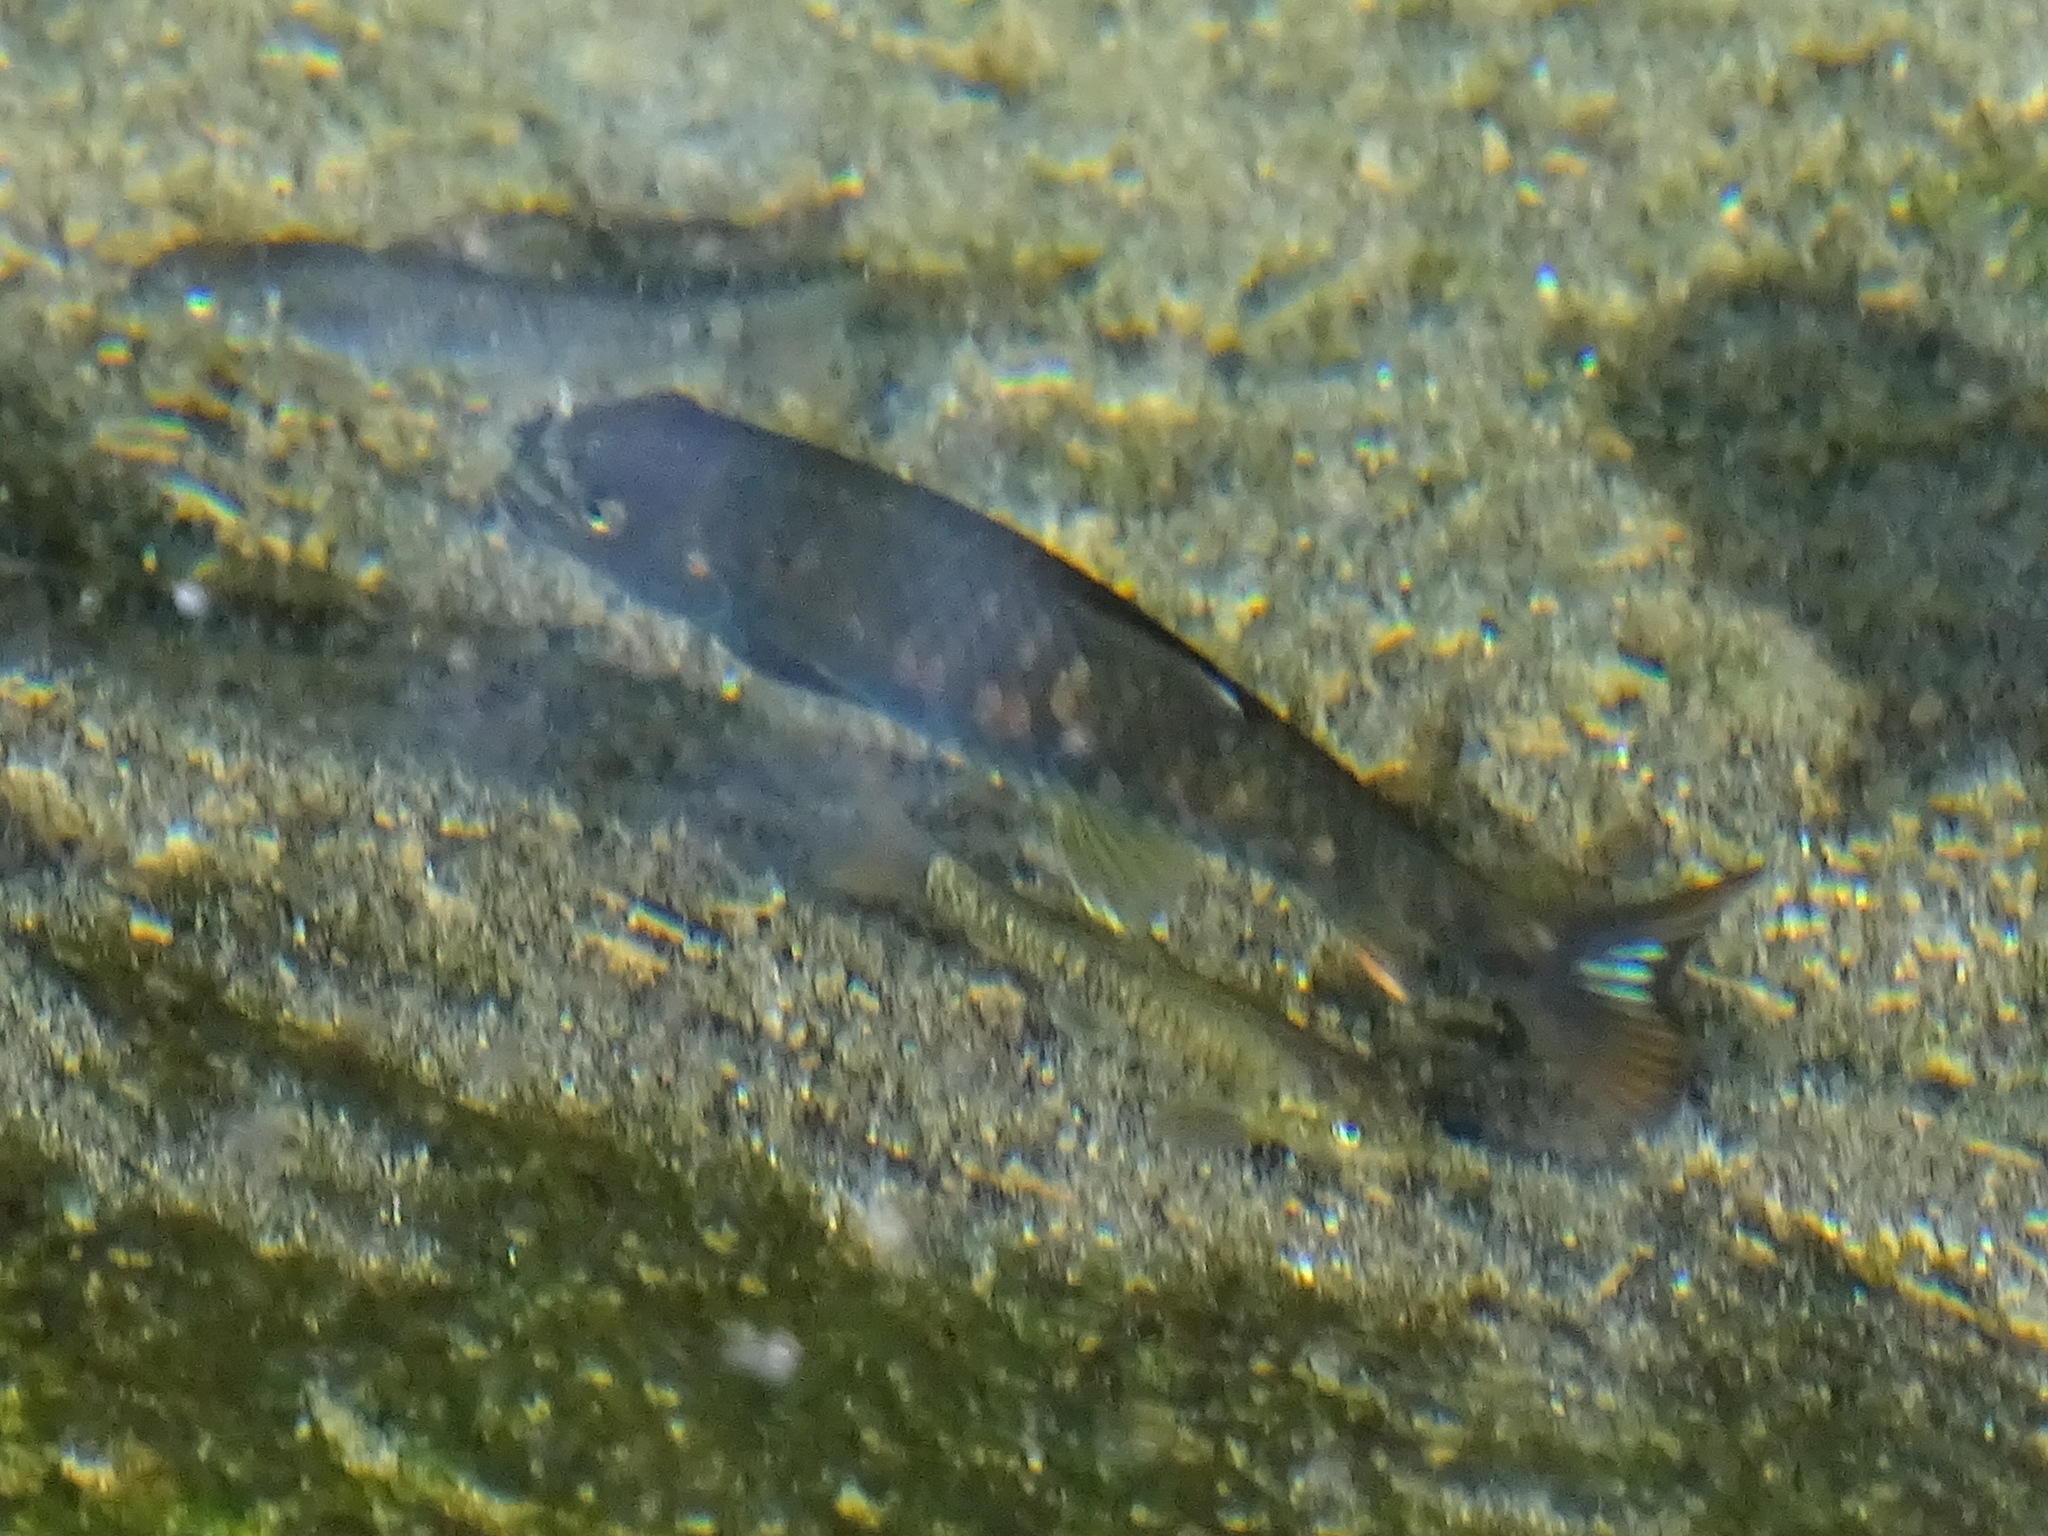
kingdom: Animalia
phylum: Chordata
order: Cypriniformes
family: Cyprinidae
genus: Garra
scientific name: Garra barreimiae
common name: Oman garra
